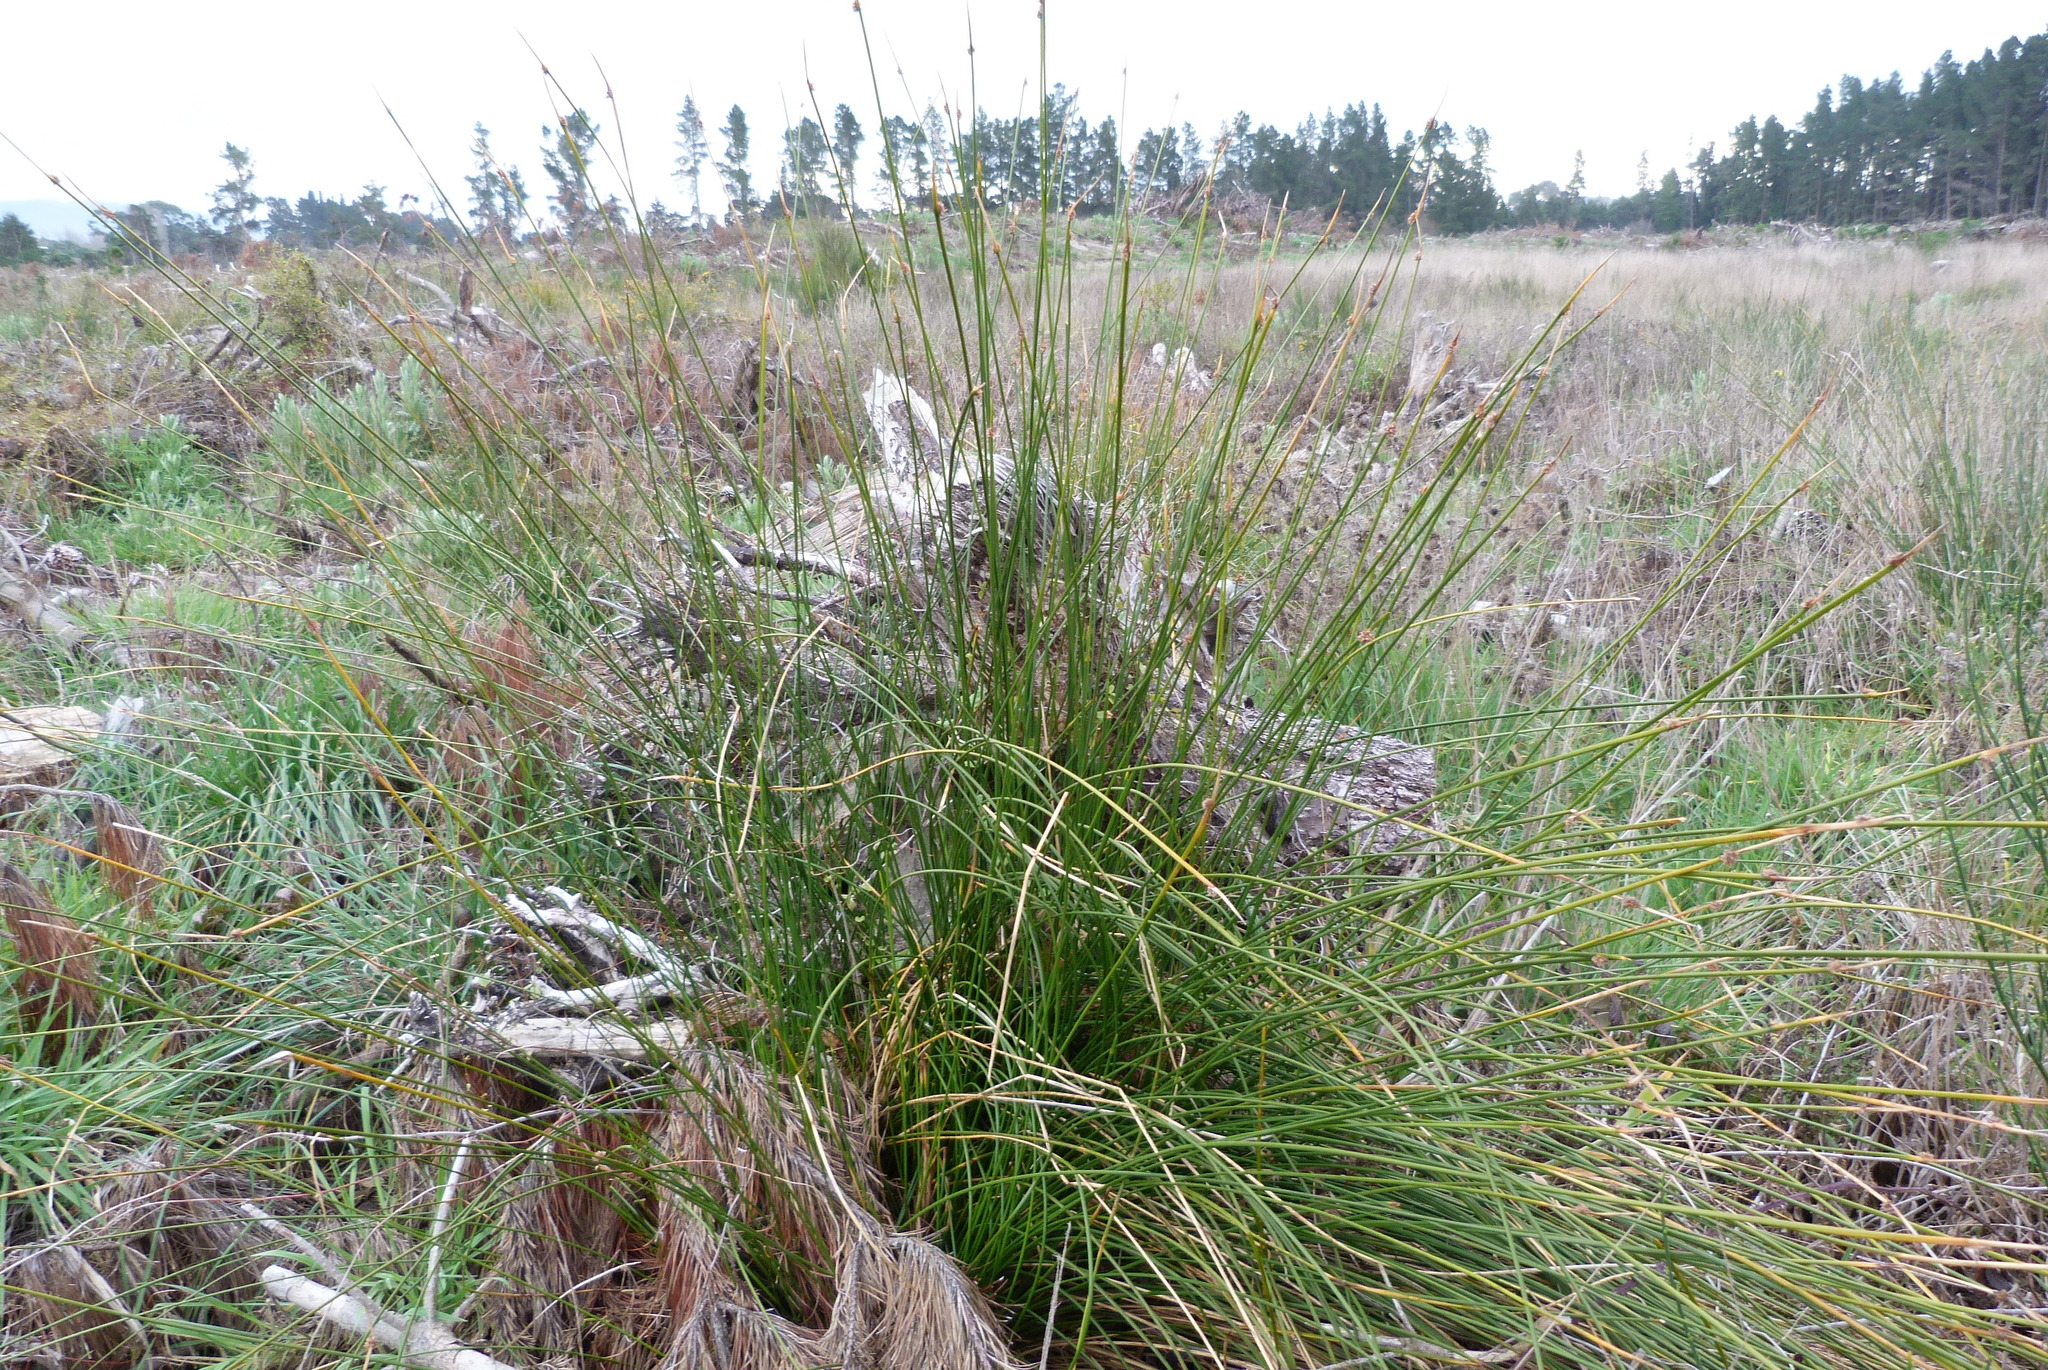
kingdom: Plantae
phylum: Tracheophyta
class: Liliopsida
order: Poales
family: Cyperaceae
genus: Ficinia
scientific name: Ficinia nodosa
